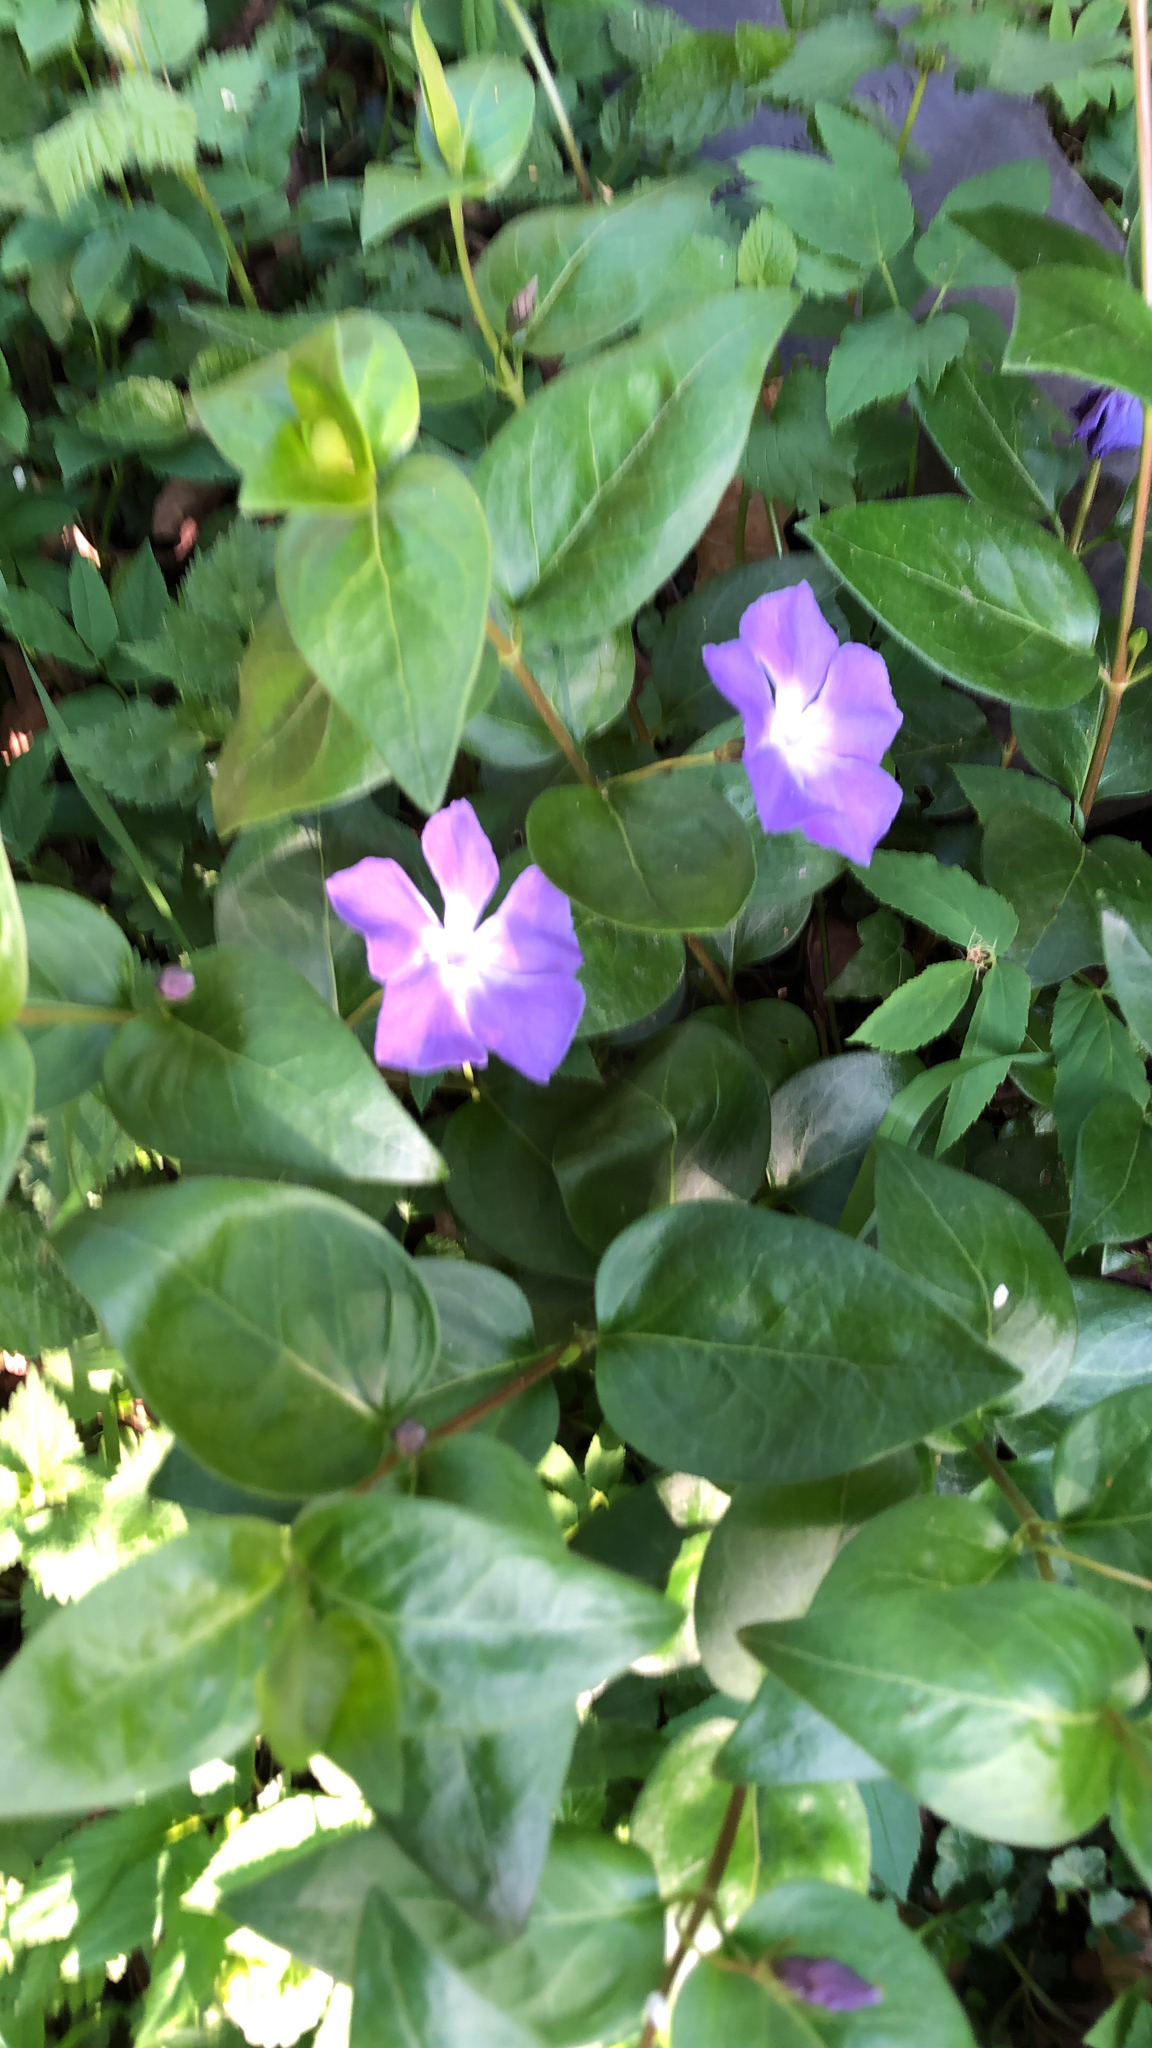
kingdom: Plantae
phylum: Tracheophyta
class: Magnoliopsida
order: Gentianales
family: Apocynaceae
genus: Vinca
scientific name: Vinca major
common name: Greater periwinkle
